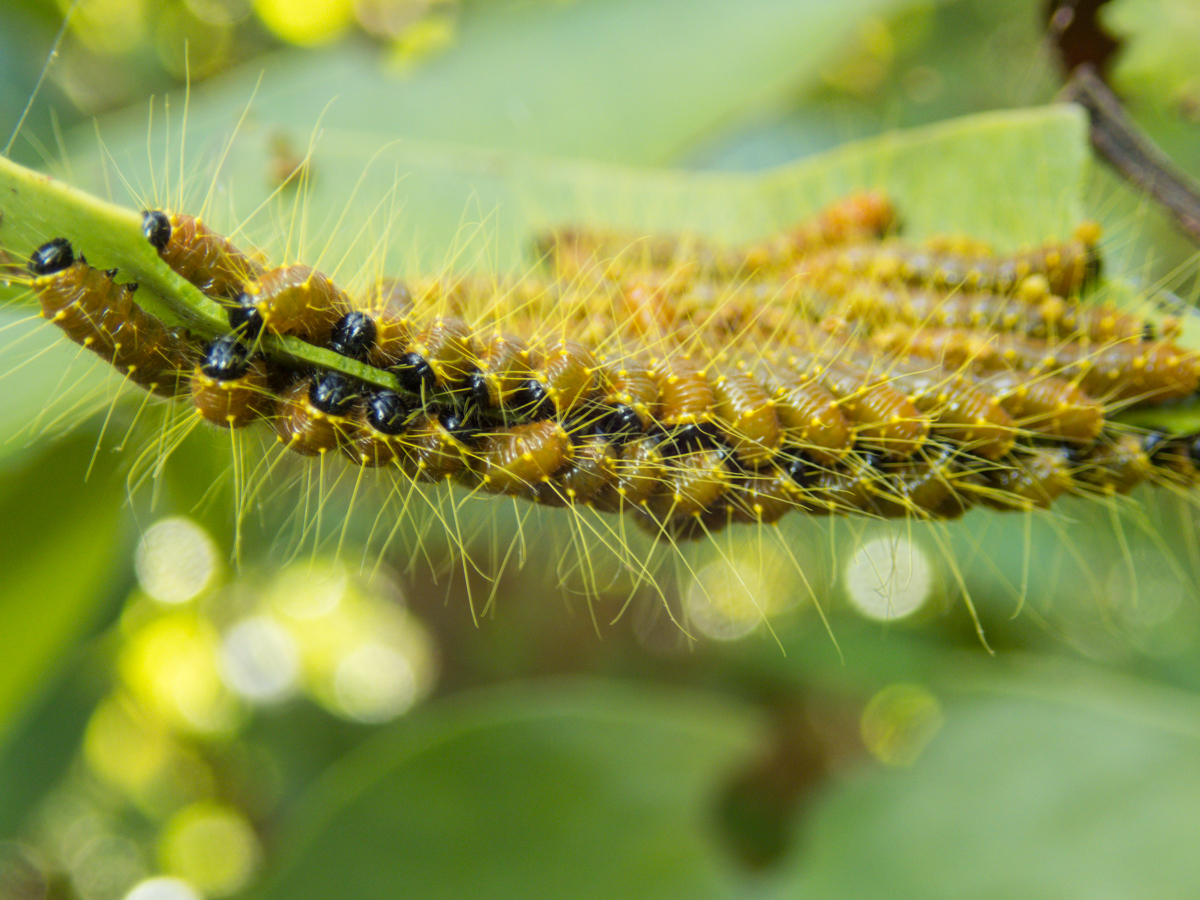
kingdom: Animalia
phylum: Arthropoda
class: Insecta
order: Lepidoptera
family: Pieridae
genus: Delias
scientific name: Delias hyparete
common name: Painted jezebel
